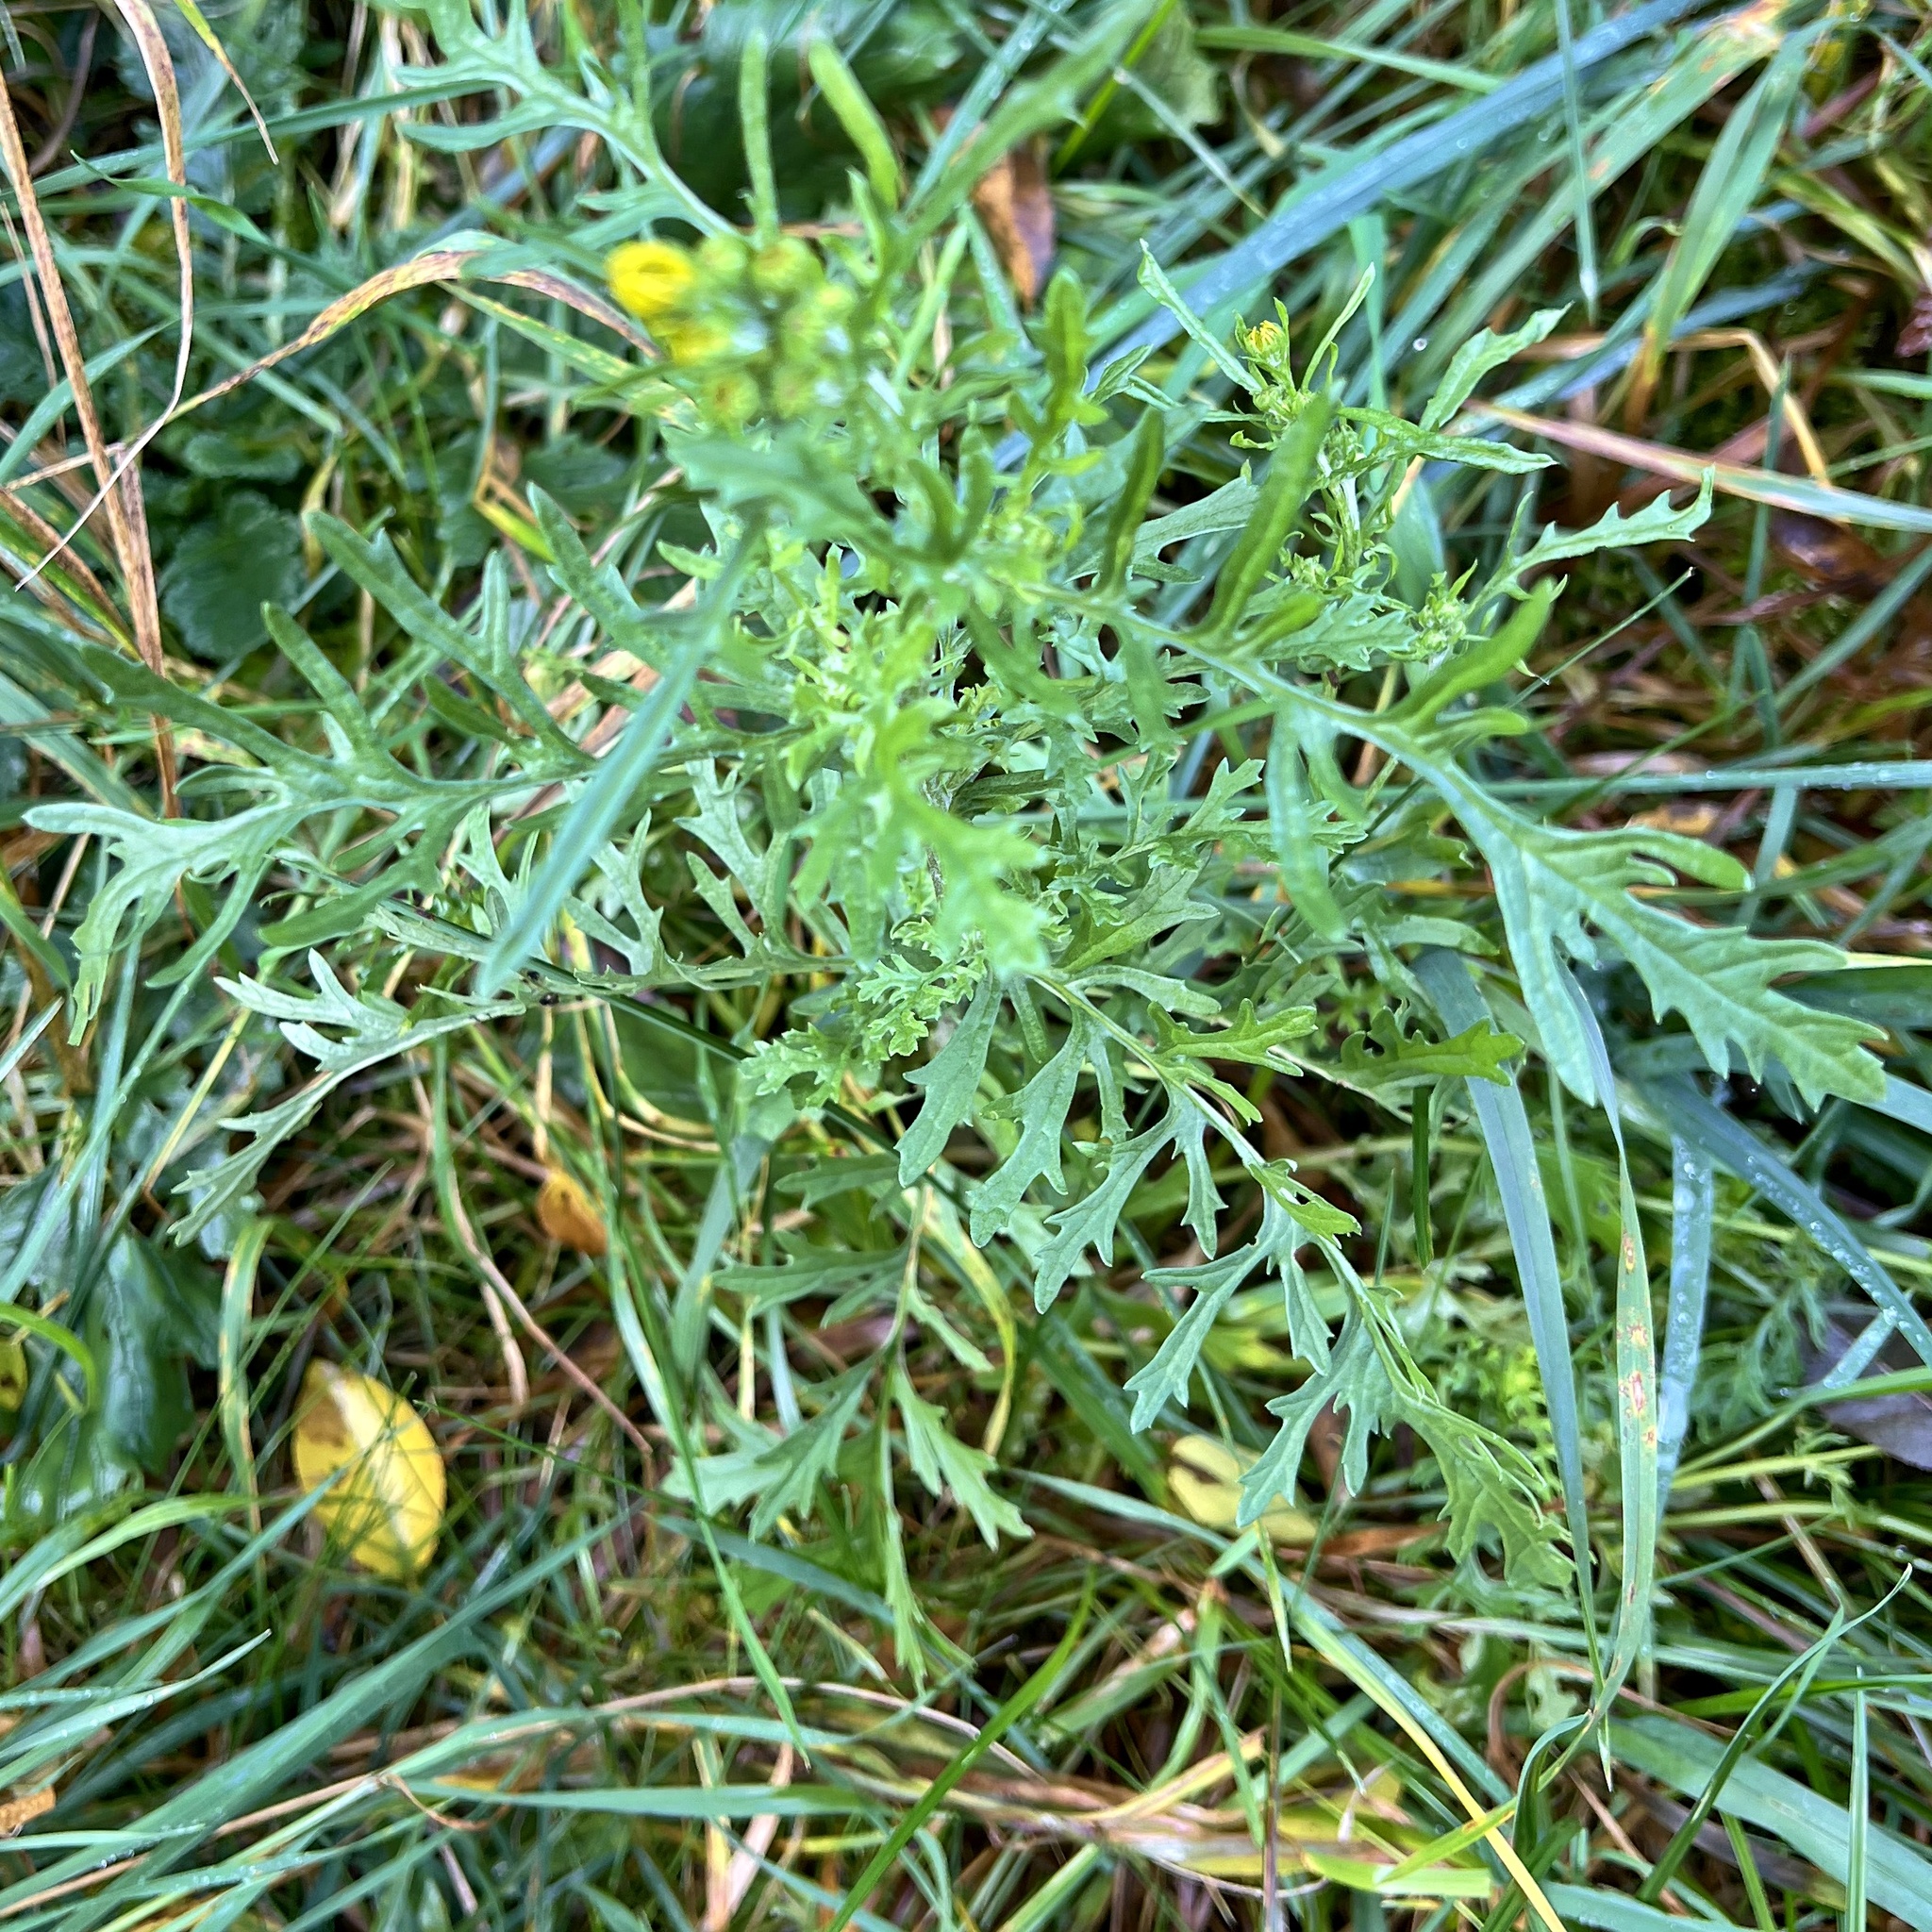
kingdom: Plantae
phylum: Tracheophyta
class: Magnoliopsida
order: Asterales
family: Asteraceae
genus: Jacobaea
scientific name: Jacobaea vulgaris
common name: Stinking willie
